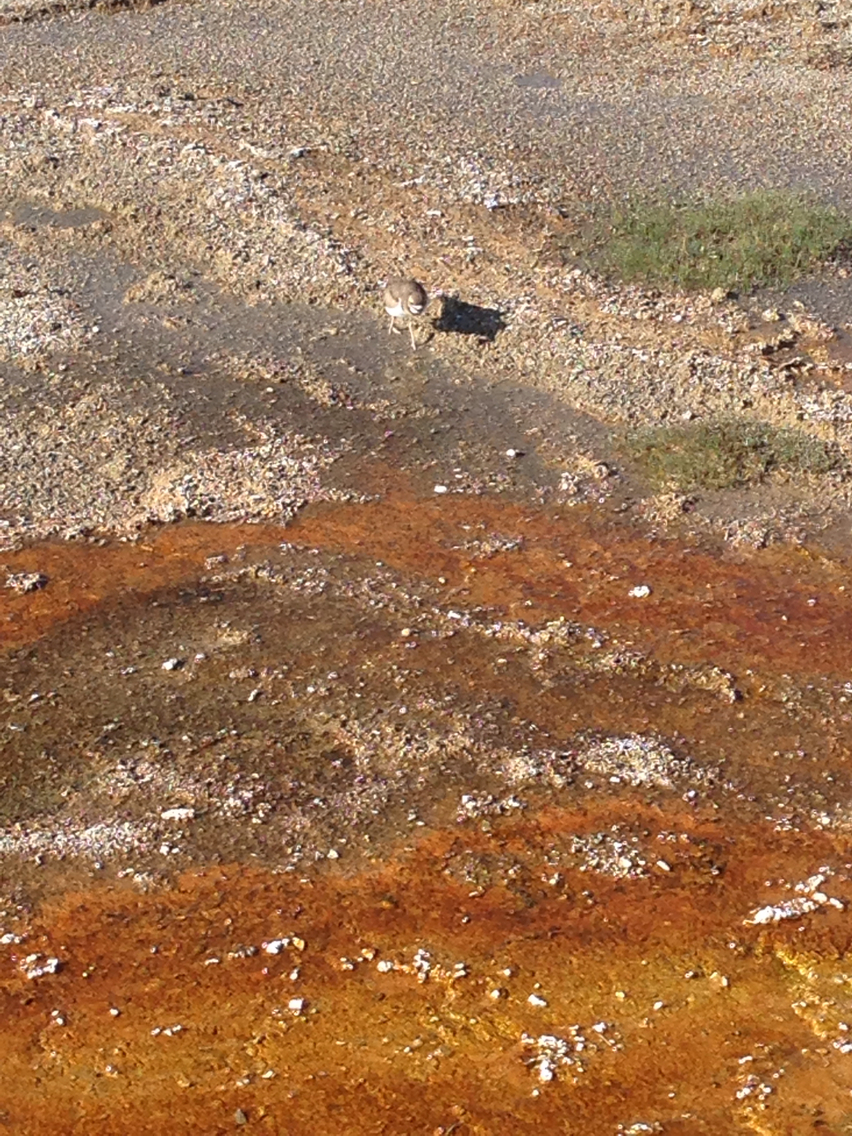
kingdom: Animalia
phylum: Chordata
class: Aves
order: Charadriiformes
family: Charadriidae
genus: Charadrius
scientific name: Charadrius vociferus
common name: Killdeer
